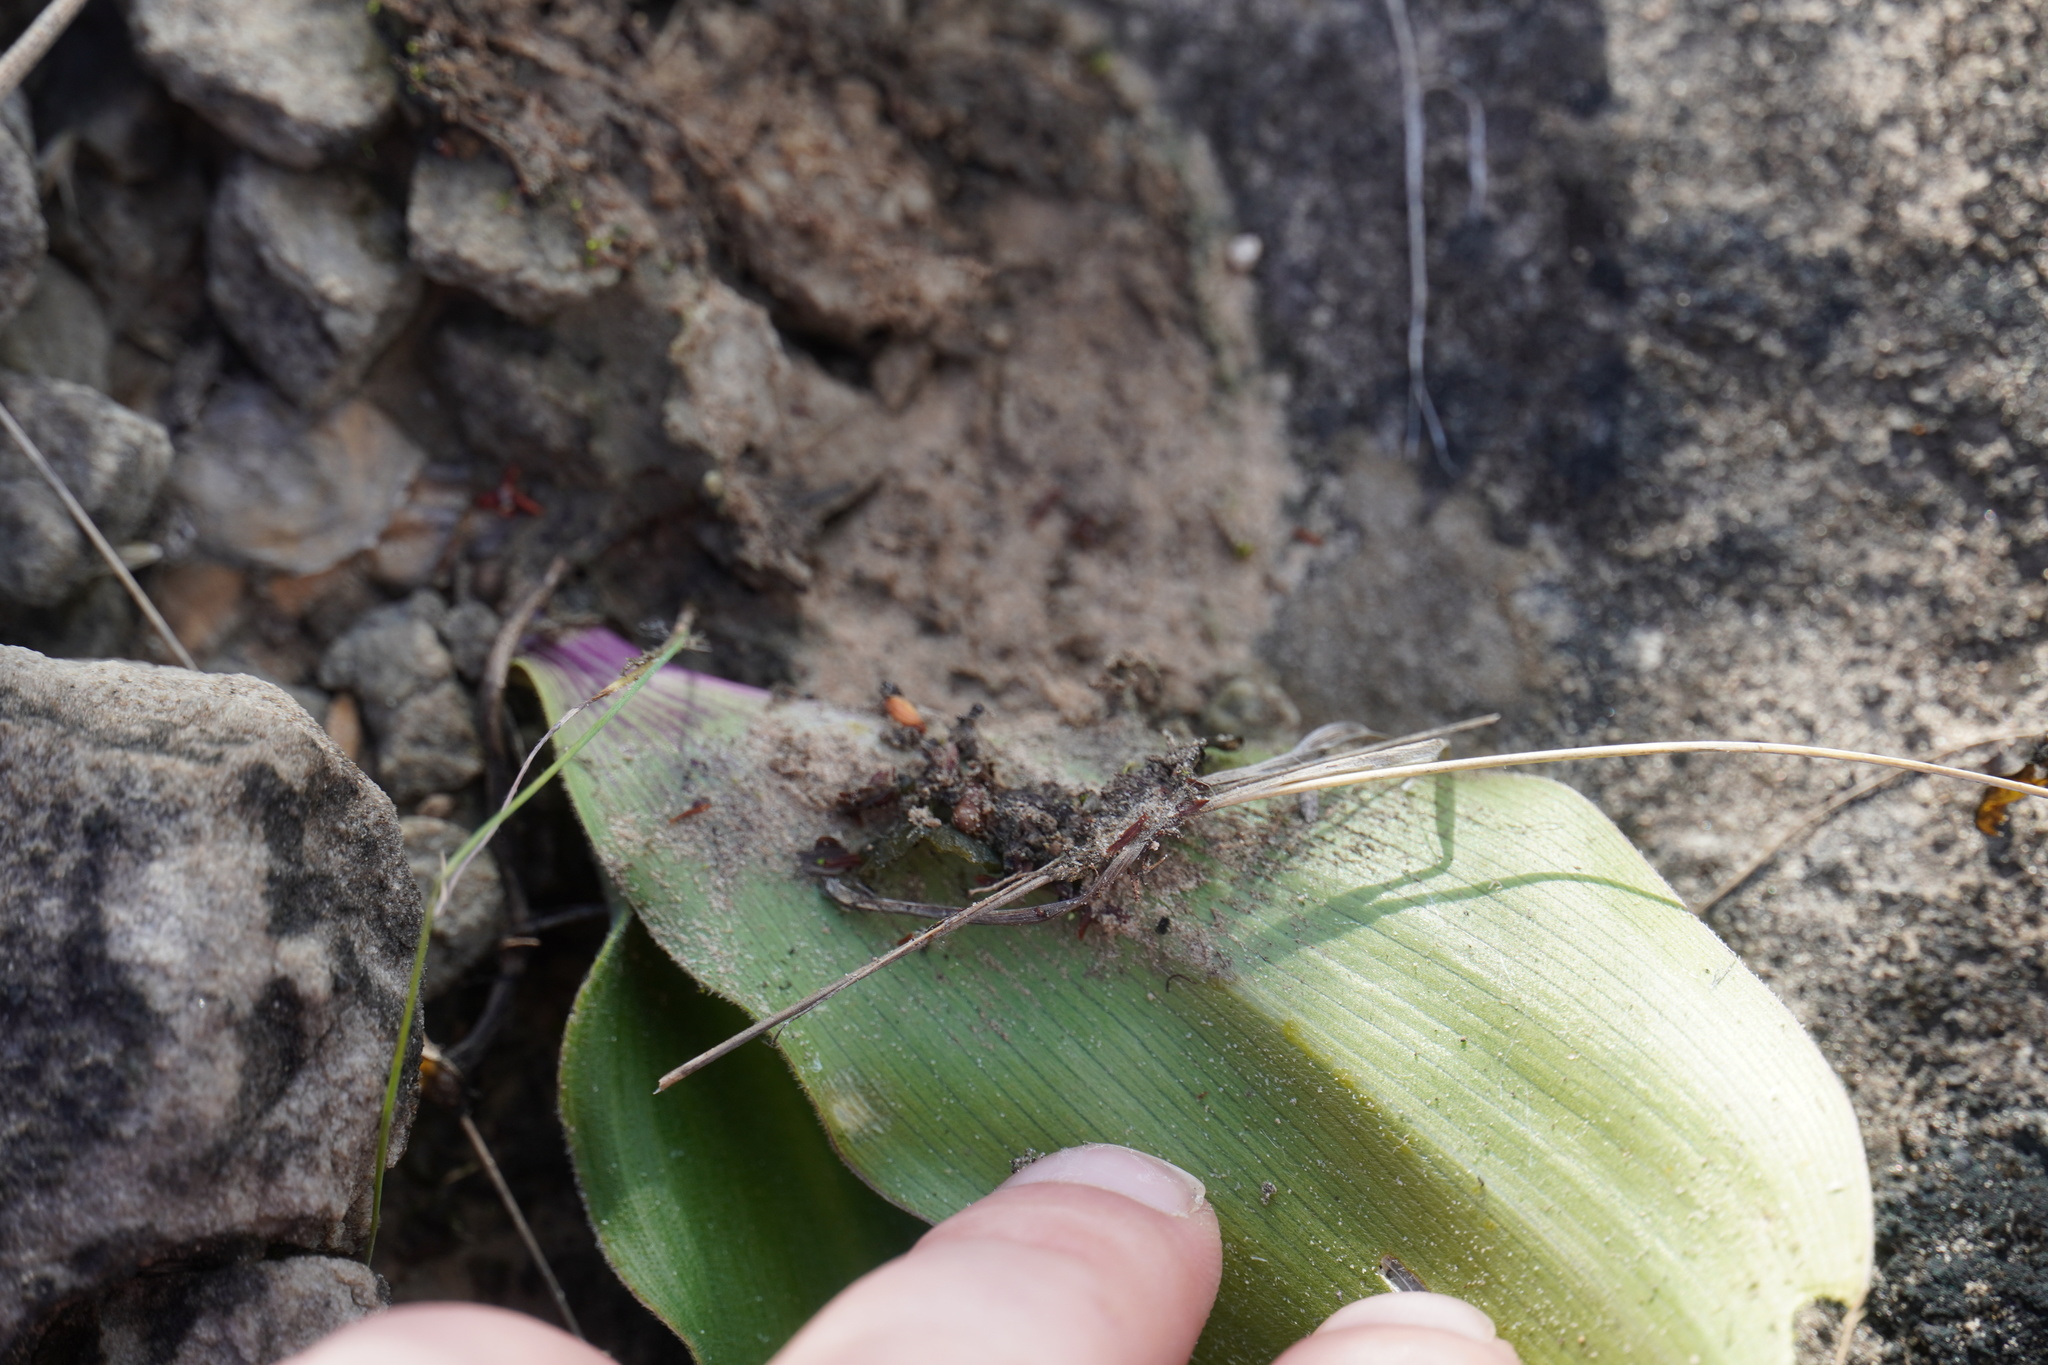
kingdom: Plantae
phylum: Tracheophyta
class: Liliopsida
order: Asparagales
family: Asparagaceae
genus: Merwilla
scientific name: Merwilla plumbea
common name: Blue-squill
